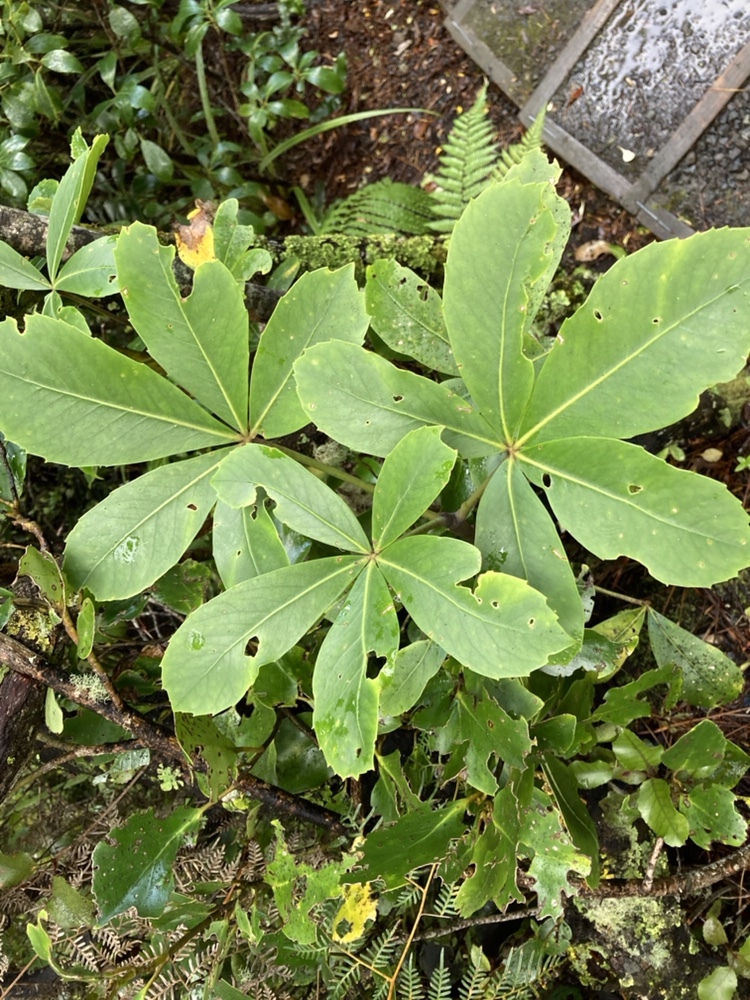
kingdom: Plantae
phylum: Tracheophyta
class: Magnoliopsida
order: Apiales
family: Araliaceae
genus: Neopanax
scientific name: Neopanax colensoi
